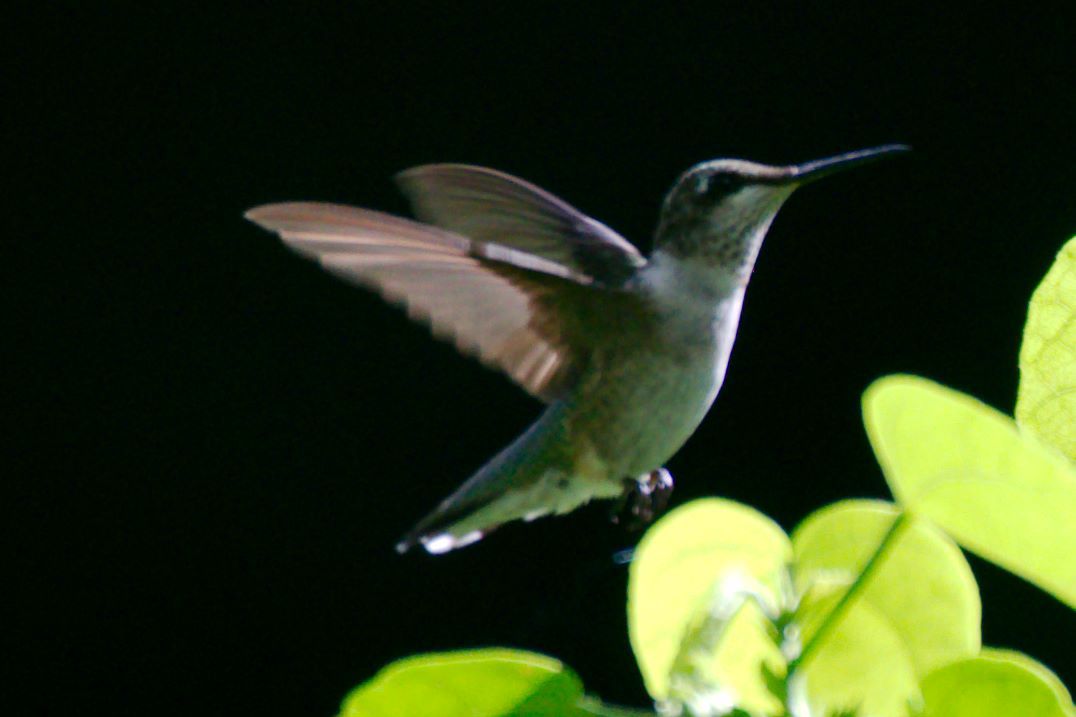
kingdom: Animalia
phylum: Chordata
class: Aves
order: Apodiformes
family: Trochilidae
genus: Archilochus
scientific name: Archilochus colubris
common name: Ruby-throated hummingbird
